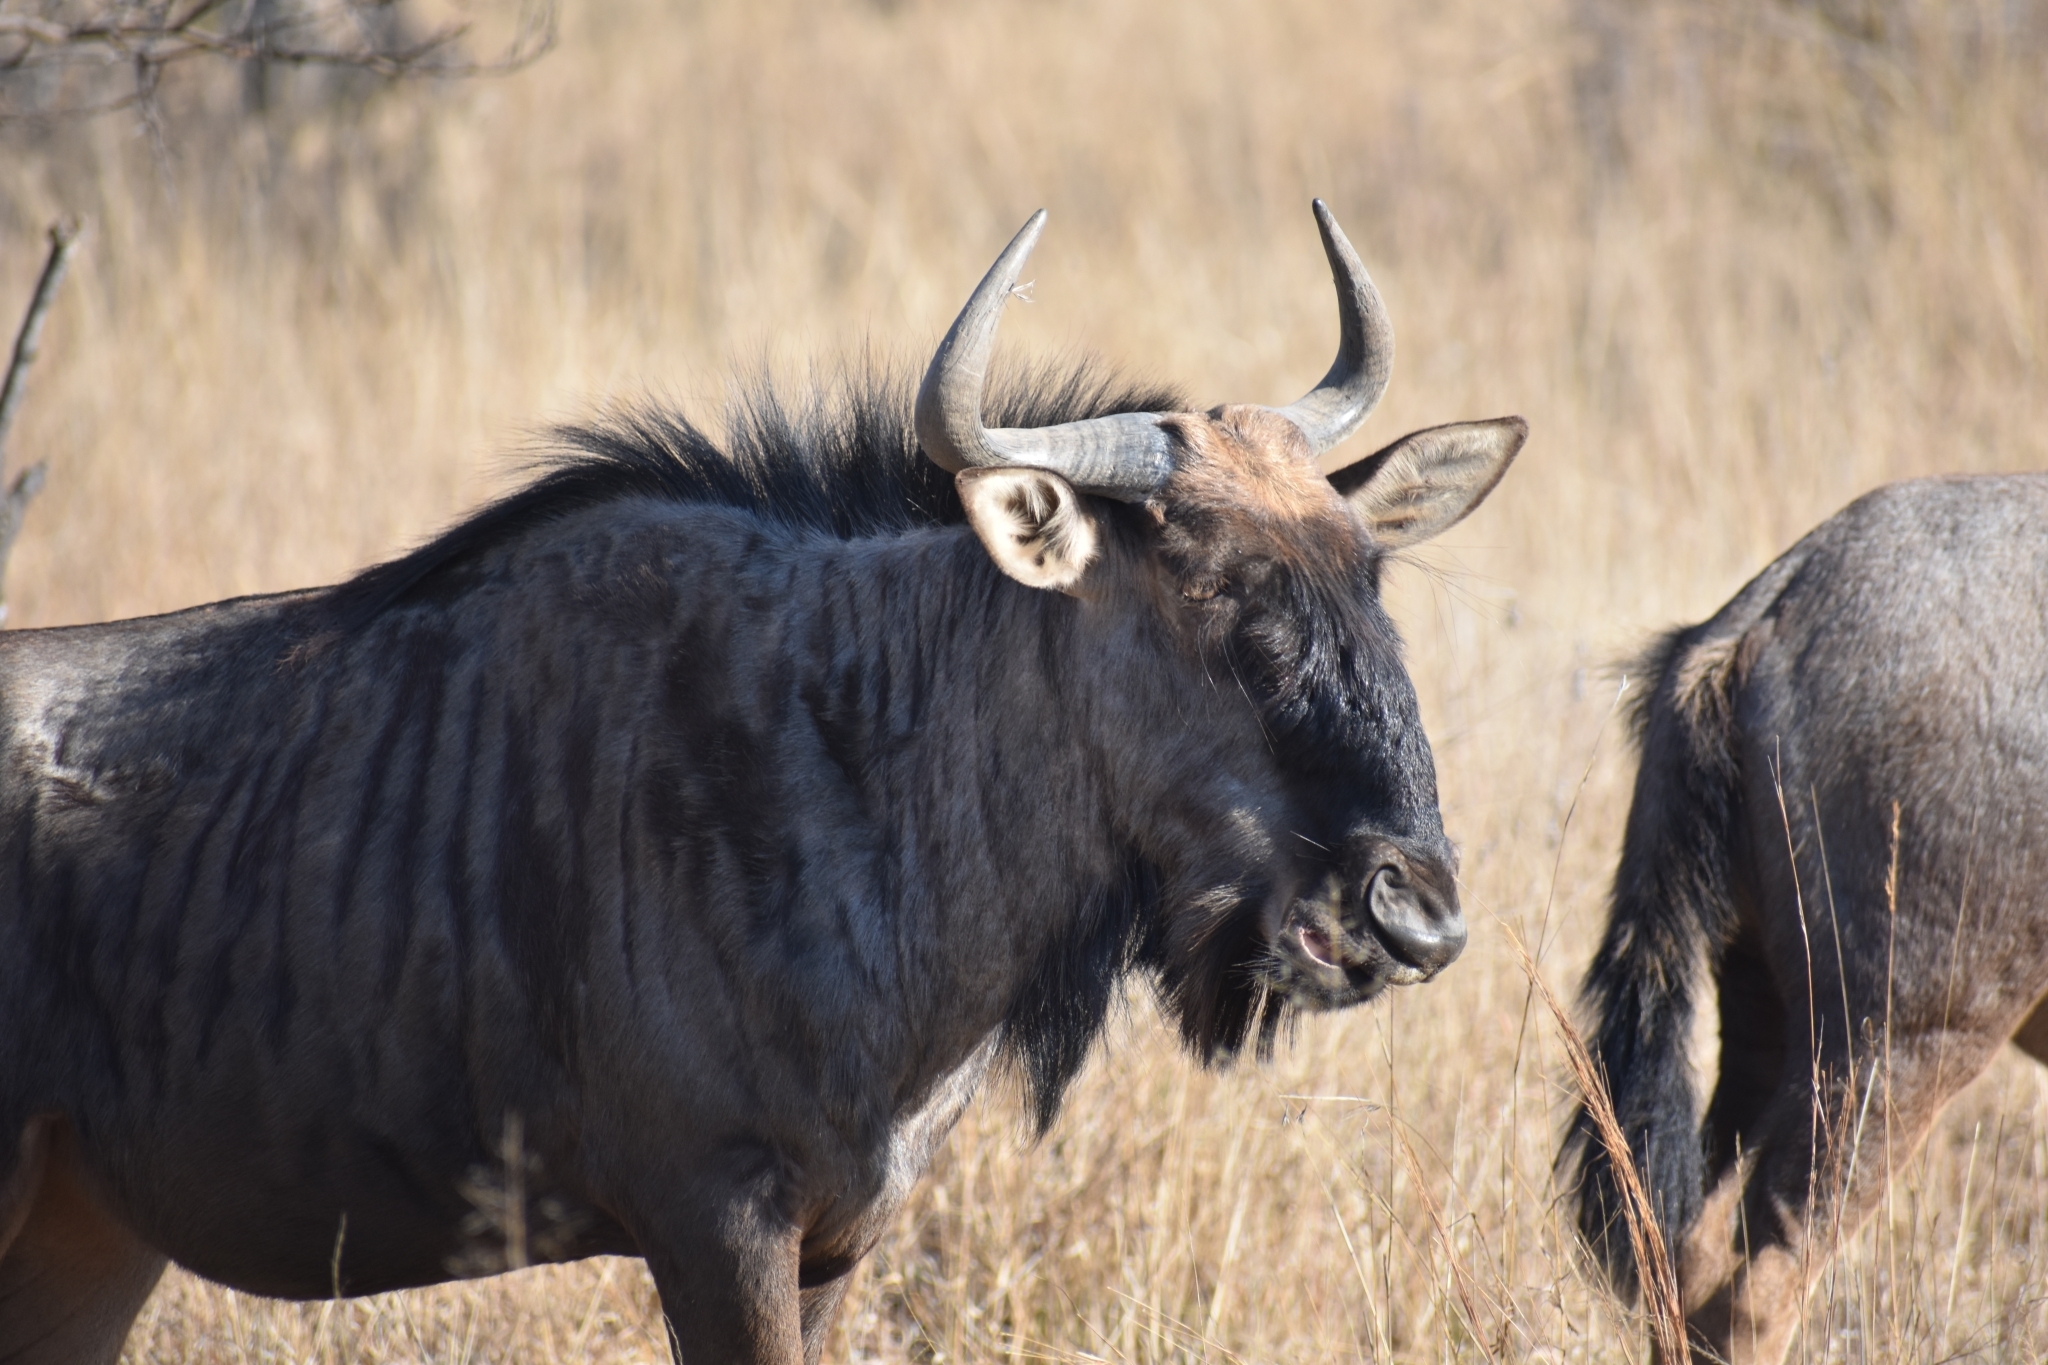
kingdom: Animalia
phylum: Chordata
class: Mammalia
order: Artiodactyla
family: Bovidae
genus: Connochaetes
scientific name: Connochaetes taurinus
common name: Blue wildebeest
